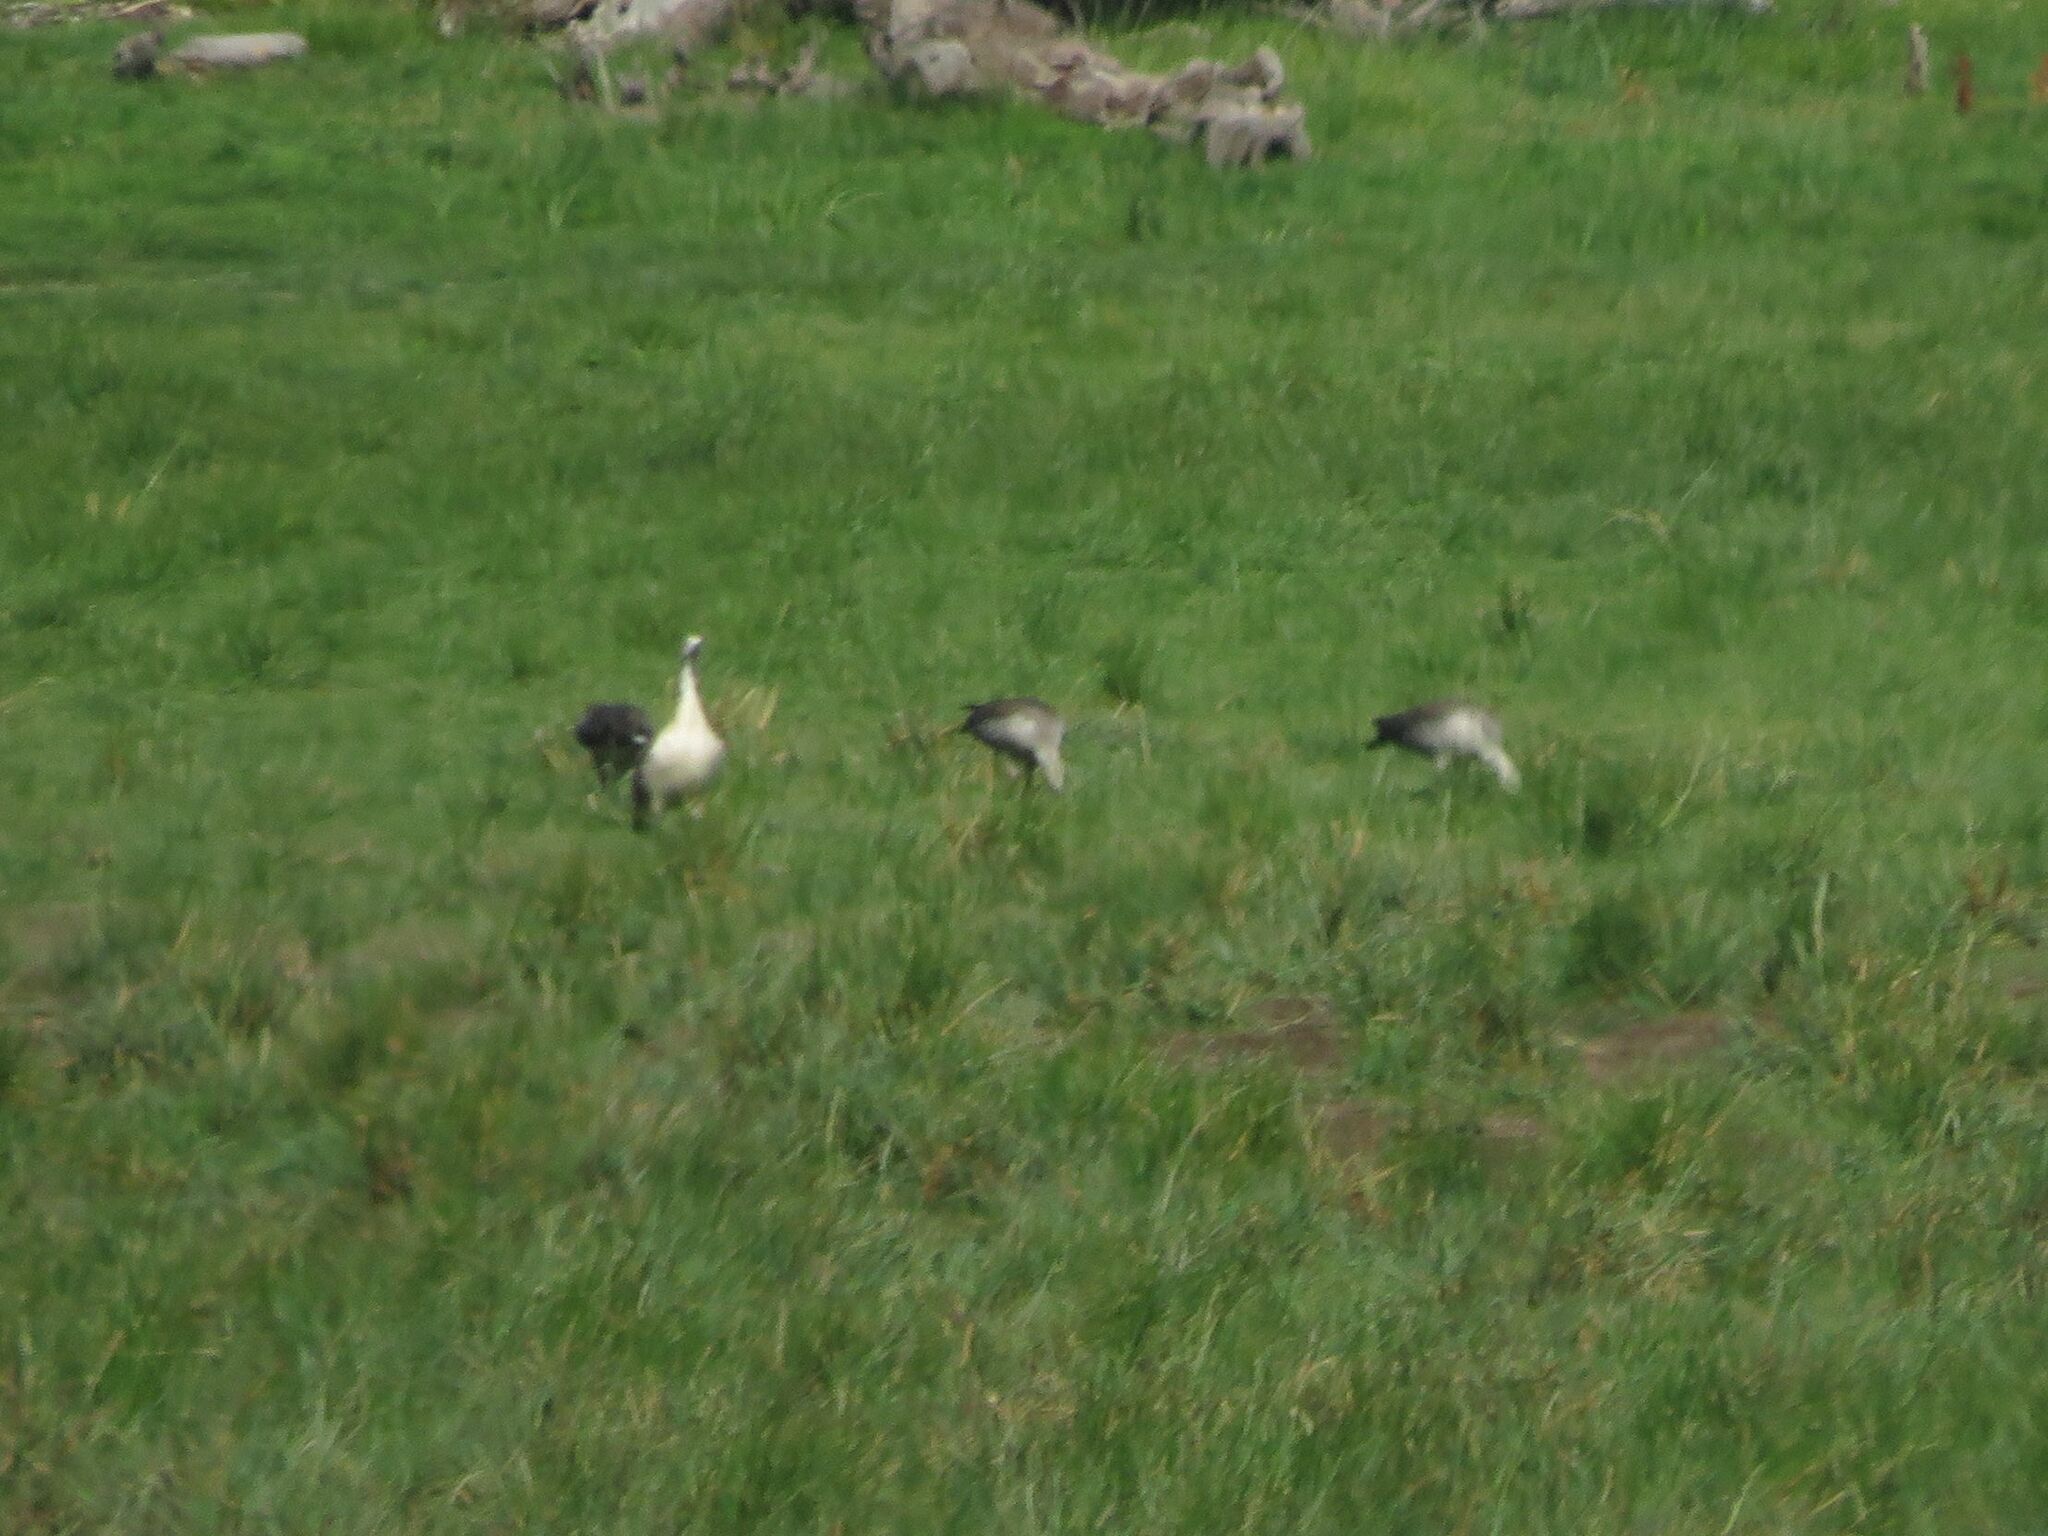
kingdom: Animalia
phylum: Chordata
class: Aves
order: Anseriformes
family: Anatidae
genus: Chloephaga
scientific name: Chloephaga picta
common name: Upland goose
